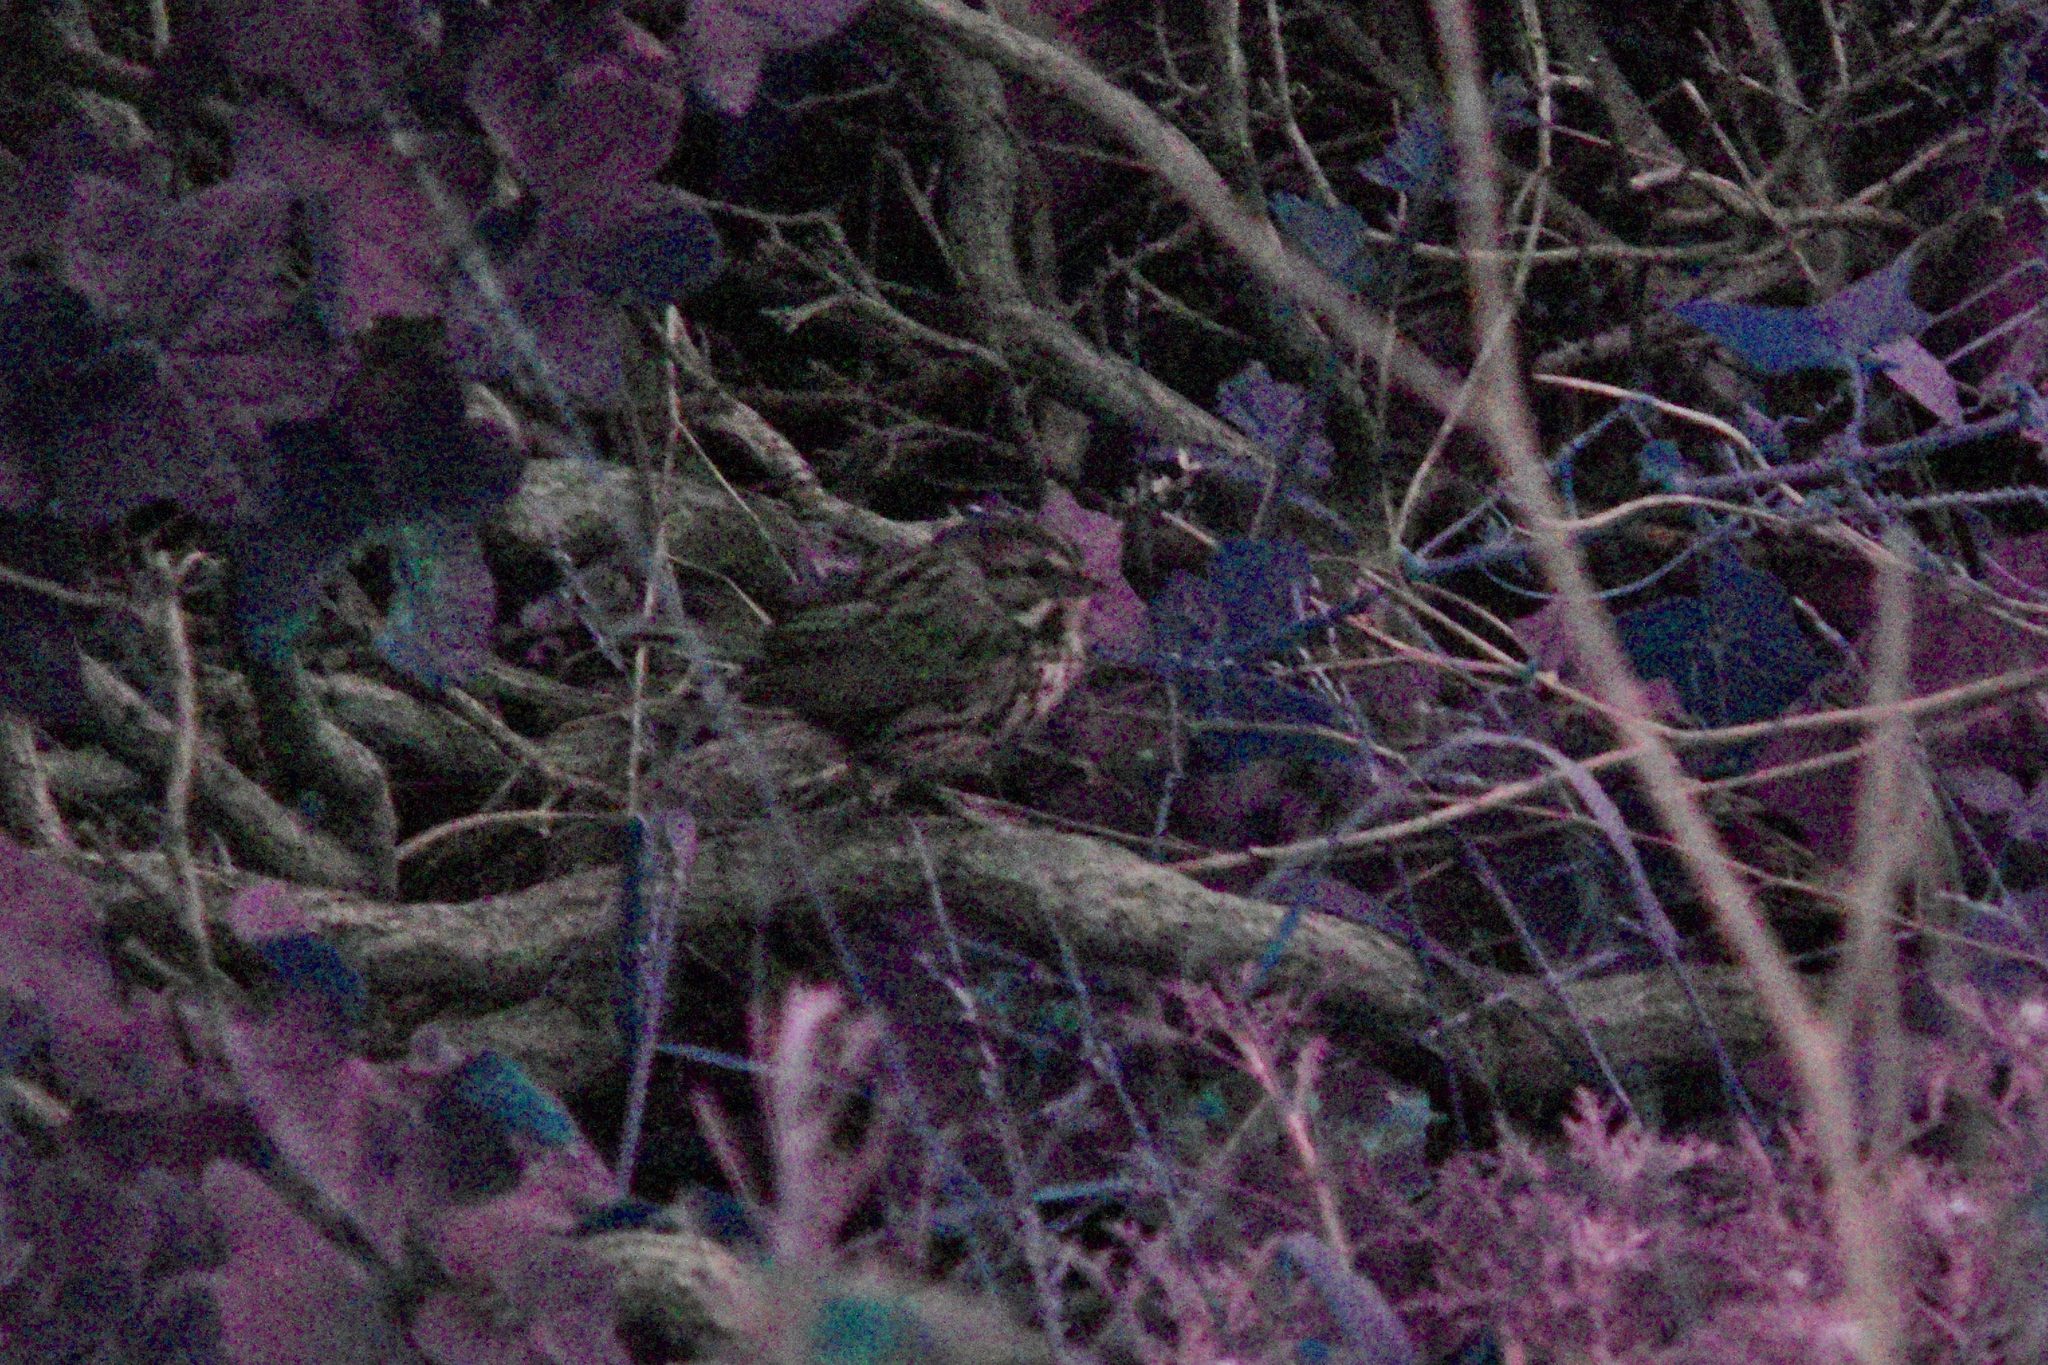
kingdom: Animalia
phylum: Chordata
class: Aves
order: Passeriformes
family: Passerellidae
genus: Melospiza
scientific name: Melospiza melodia
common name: Song sparrow
